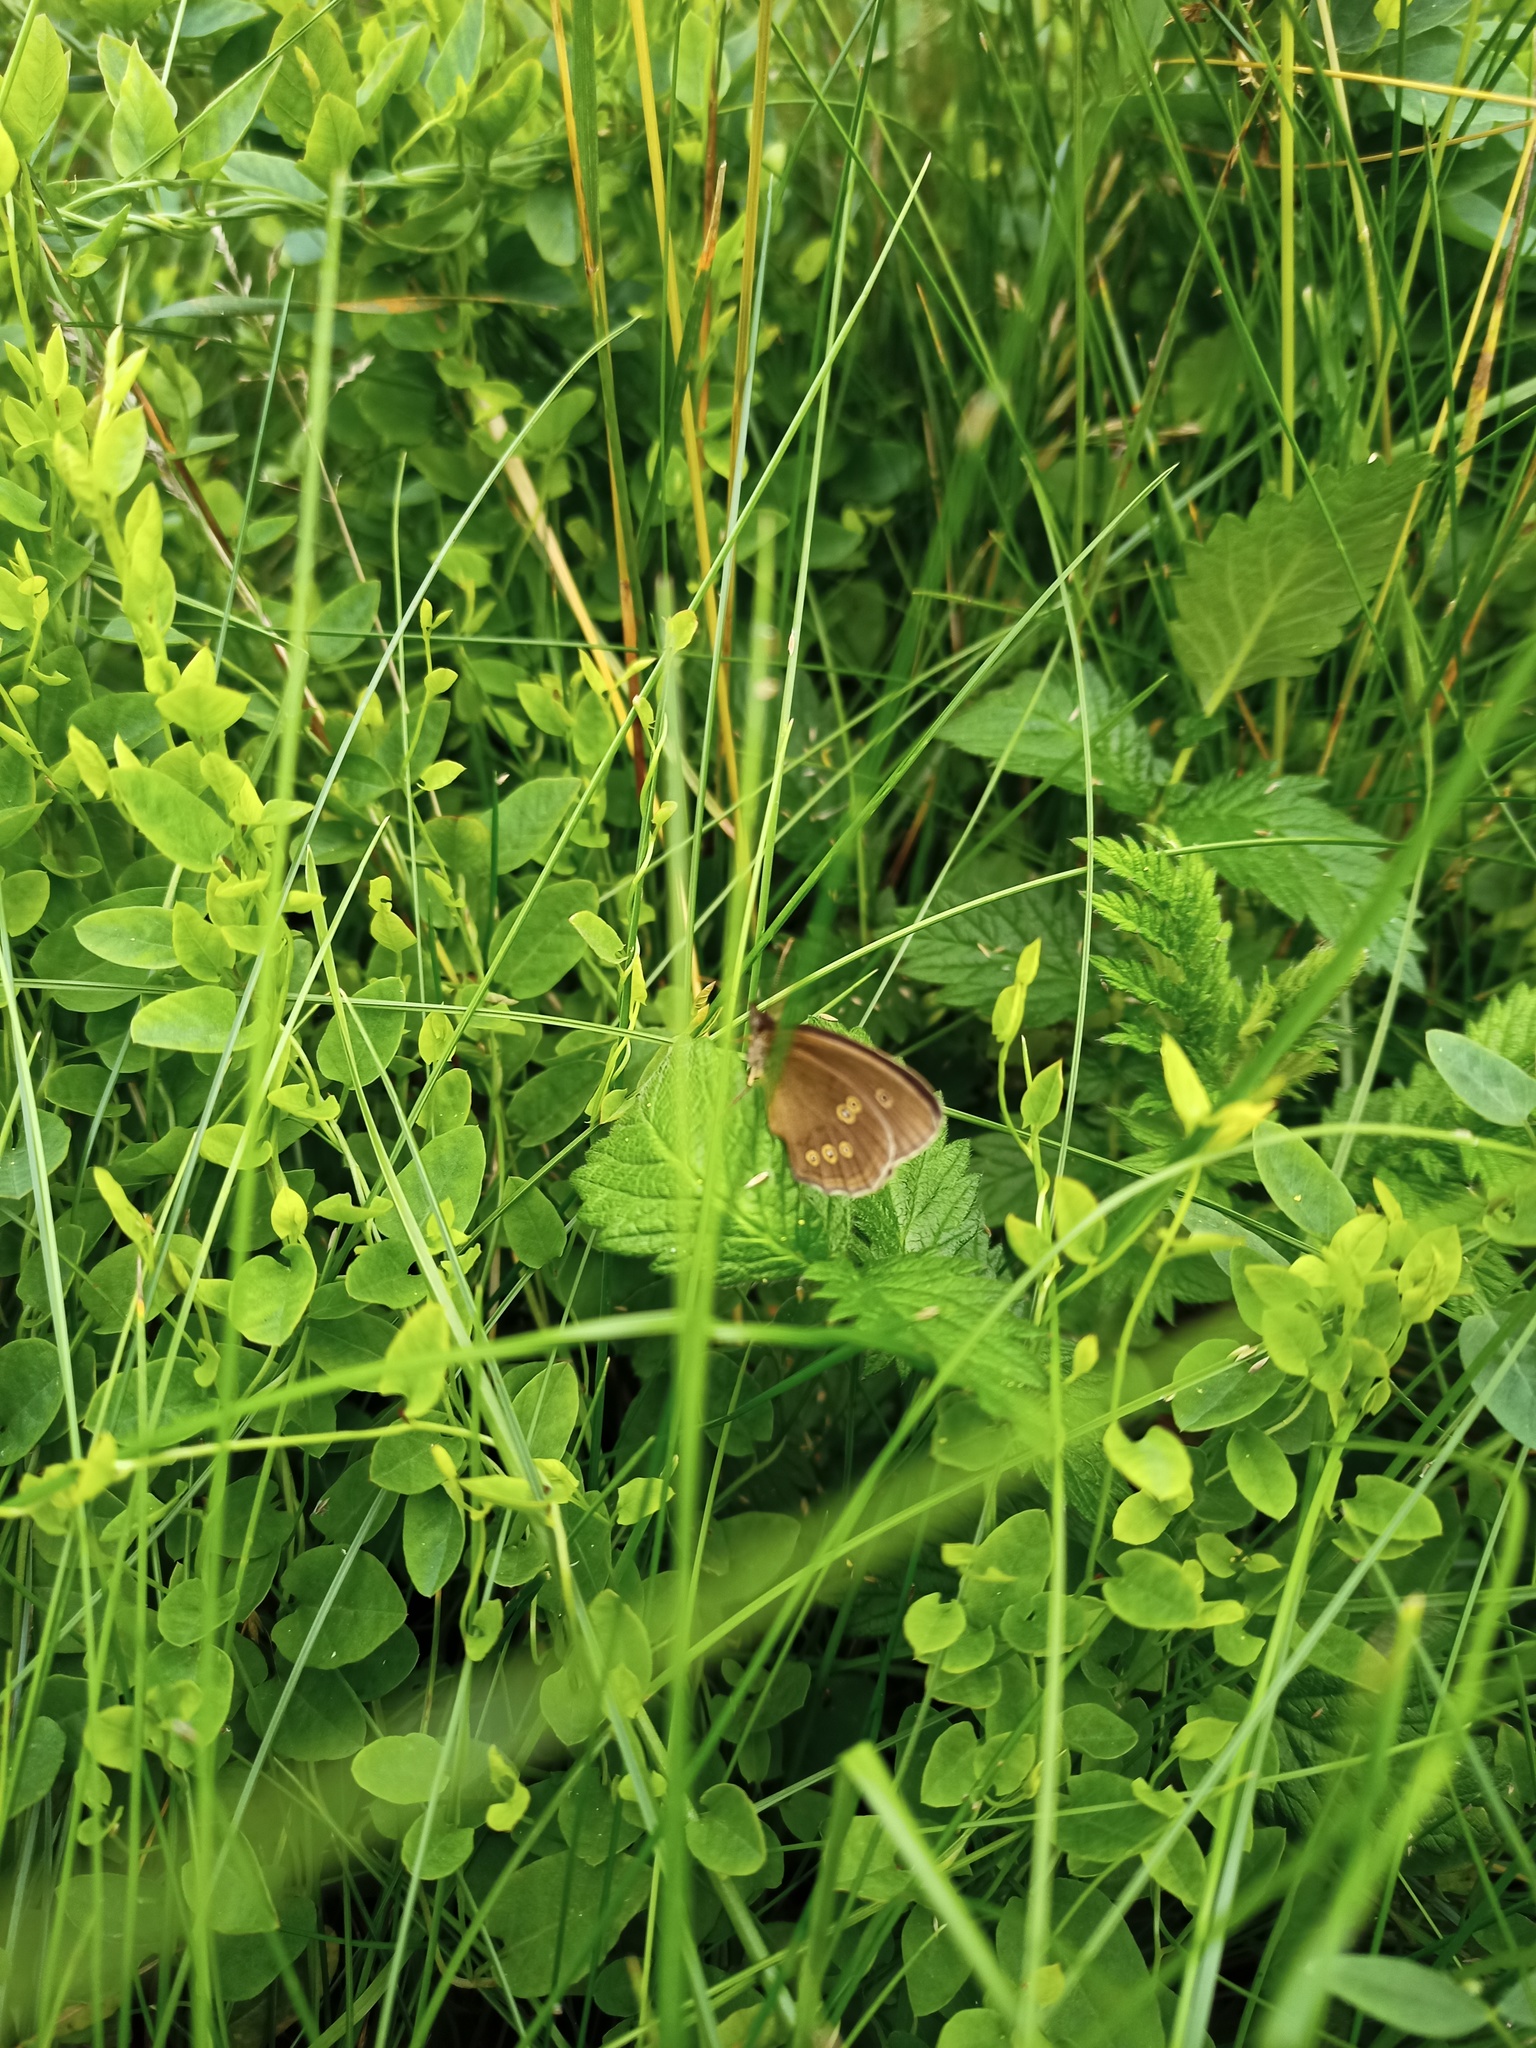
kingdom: Animalia
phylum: Arthropoda
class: Insecta
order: Lepidoptera
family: Nymphalidae
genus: Aphantopus
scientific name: Aphantopus hyperantus
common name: Ringlet
